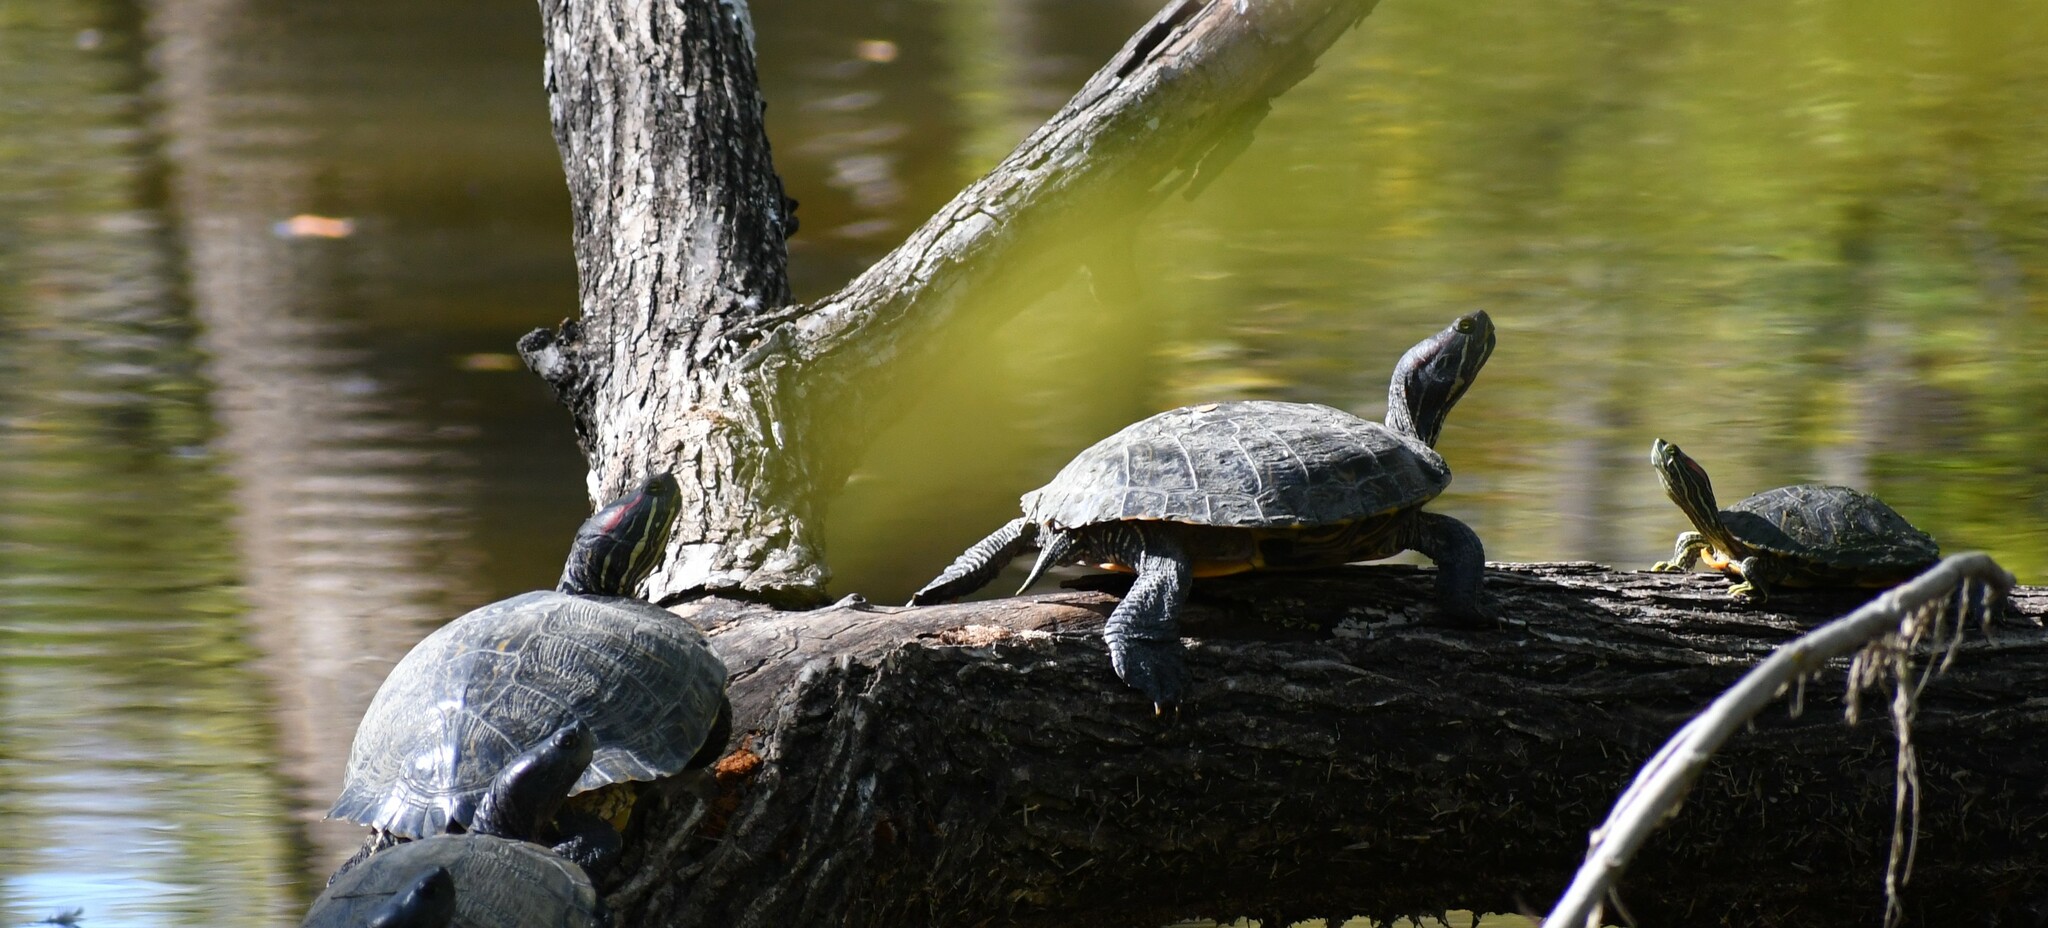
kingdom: Animalia
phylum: Chordata
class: Testudines
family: Emydidae
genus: Trachemys
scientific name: Trachemys scripta
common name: Slider
